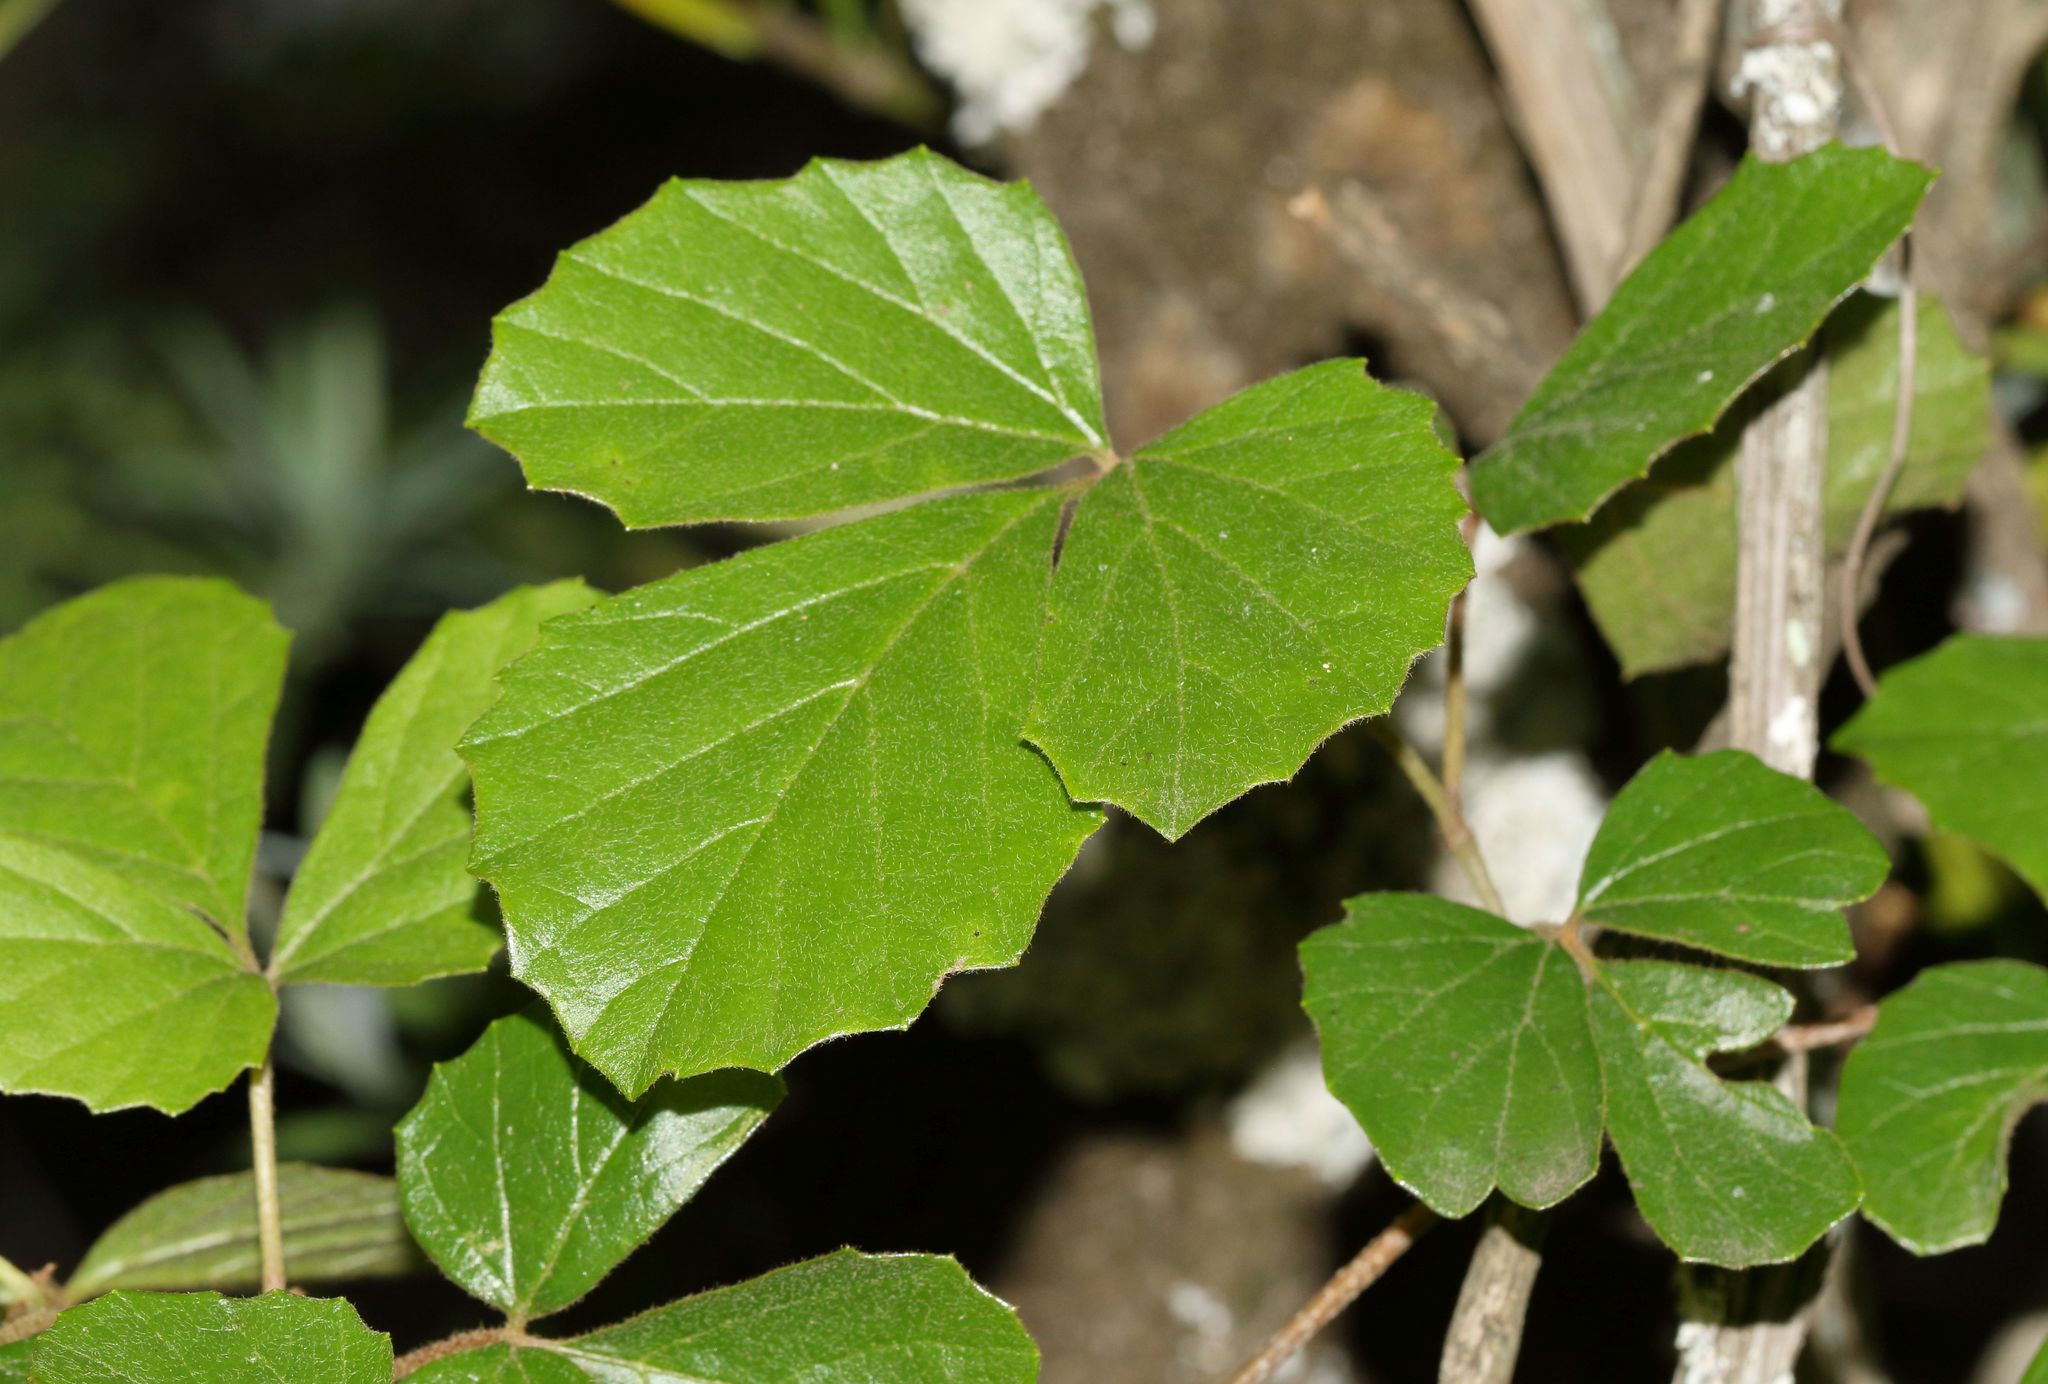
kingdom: Plantae
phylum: Tracheophyta
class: Magnoliopsida
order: Vitales
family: Vitaceae
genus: Rhoicissus
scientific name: Rhoicissus tridentata
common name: Common forest grape
